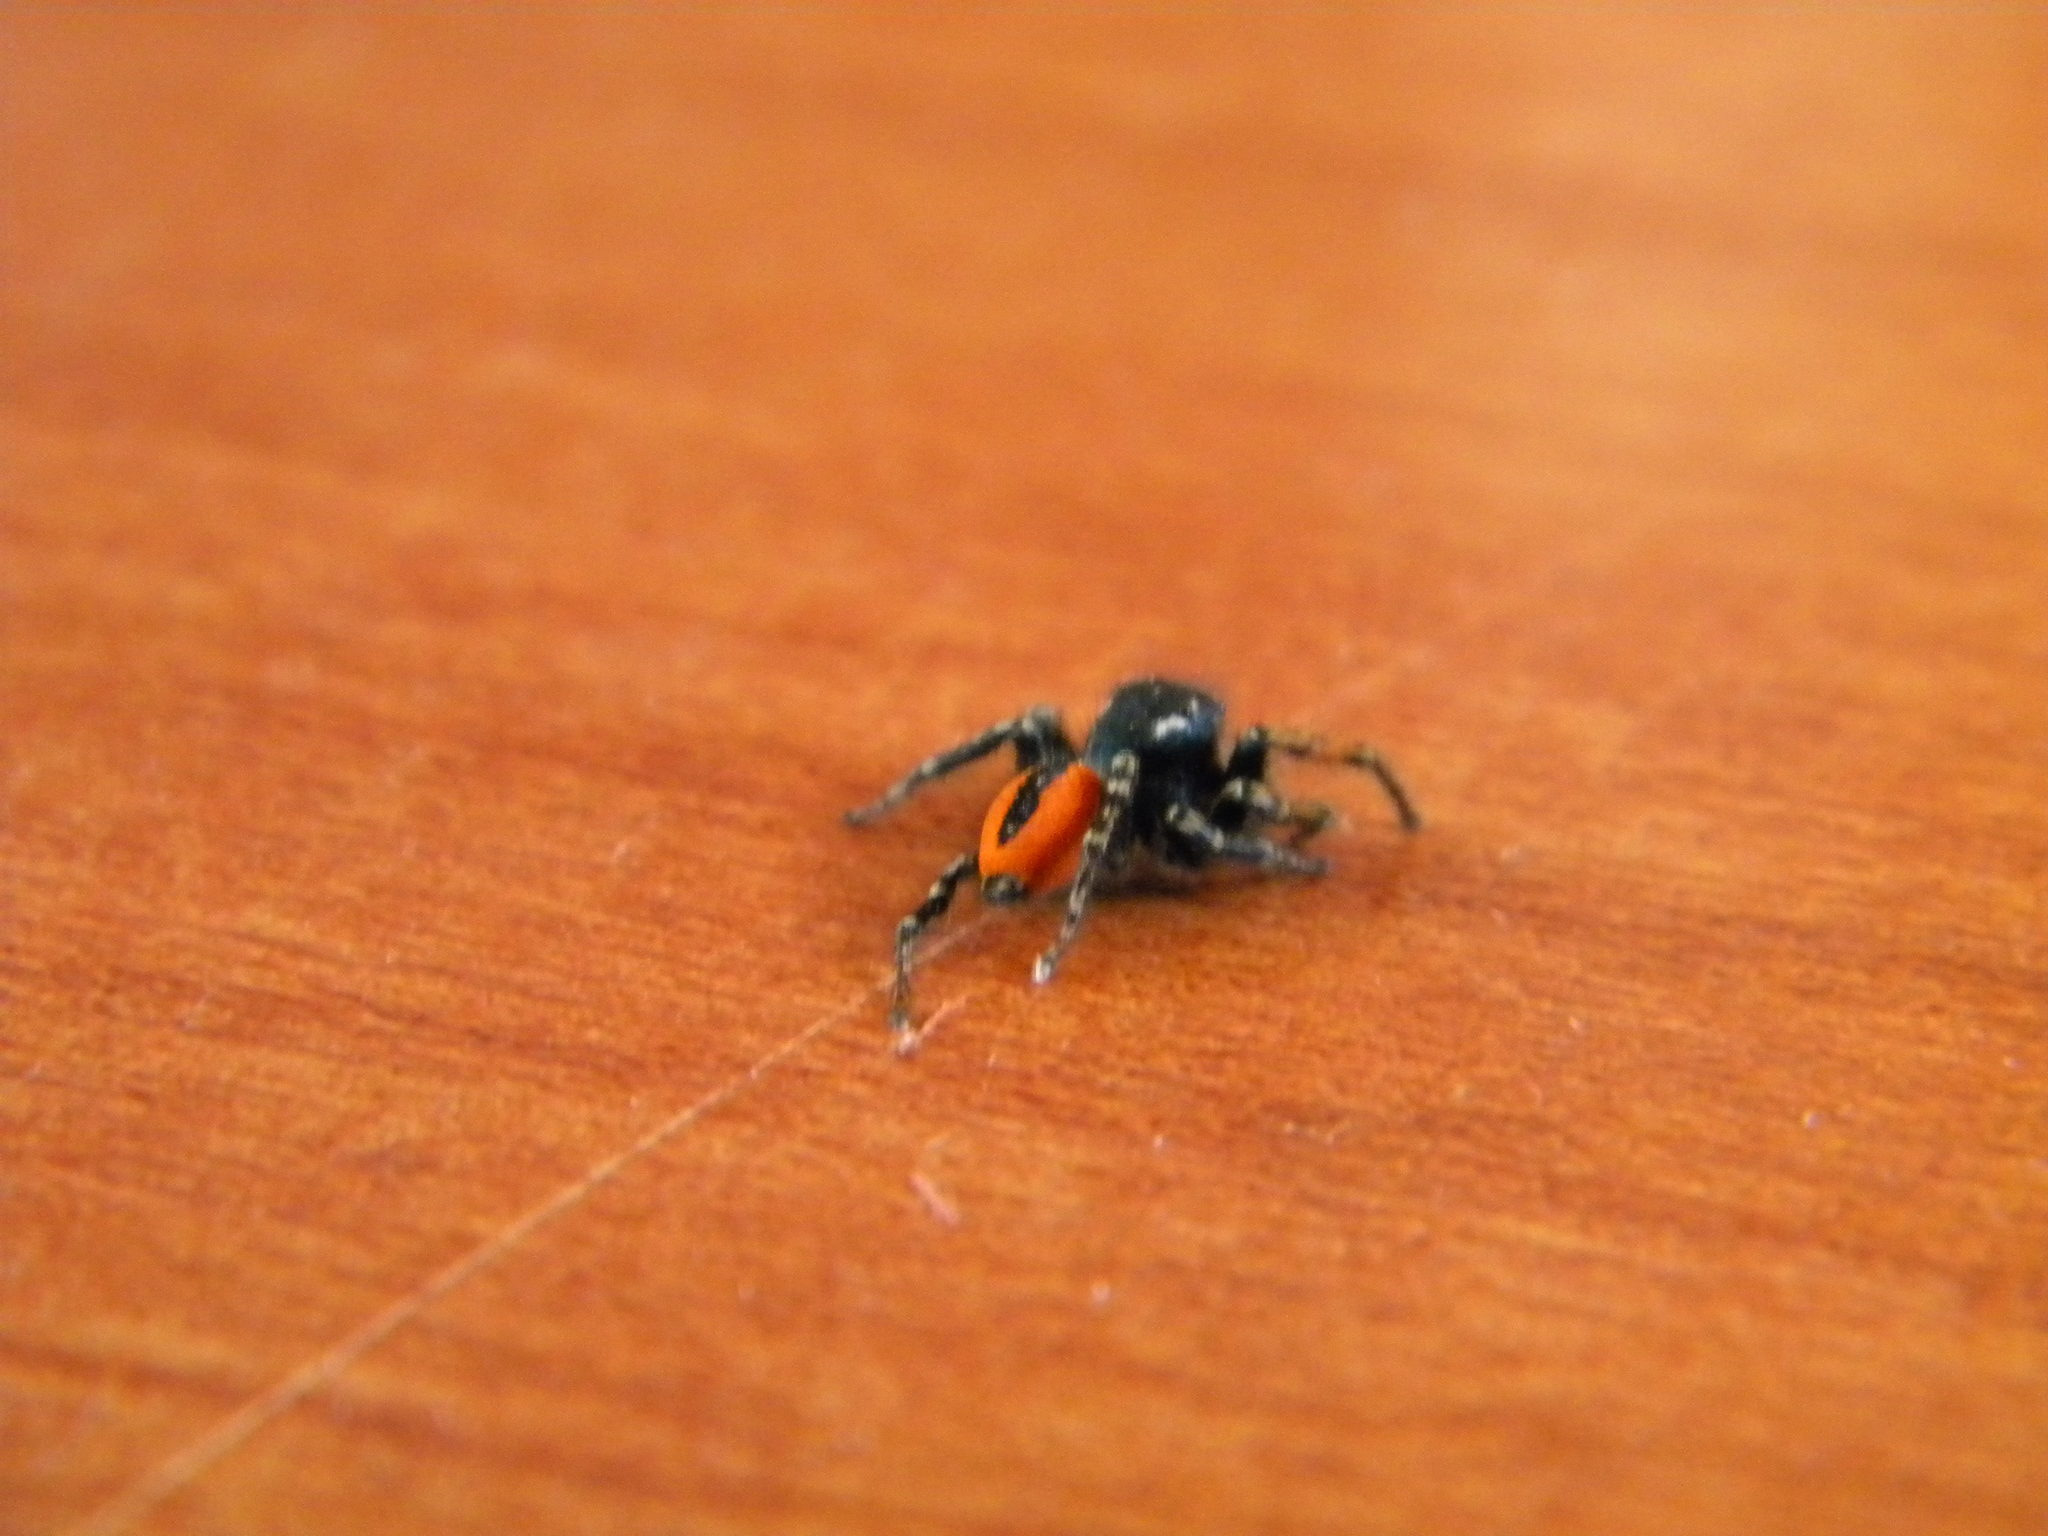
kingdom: Animalia
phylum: Arthropoda
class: Arachnida
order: Araneae
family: Salticidae
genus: Philaeus
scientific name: Philaeus chrysops
